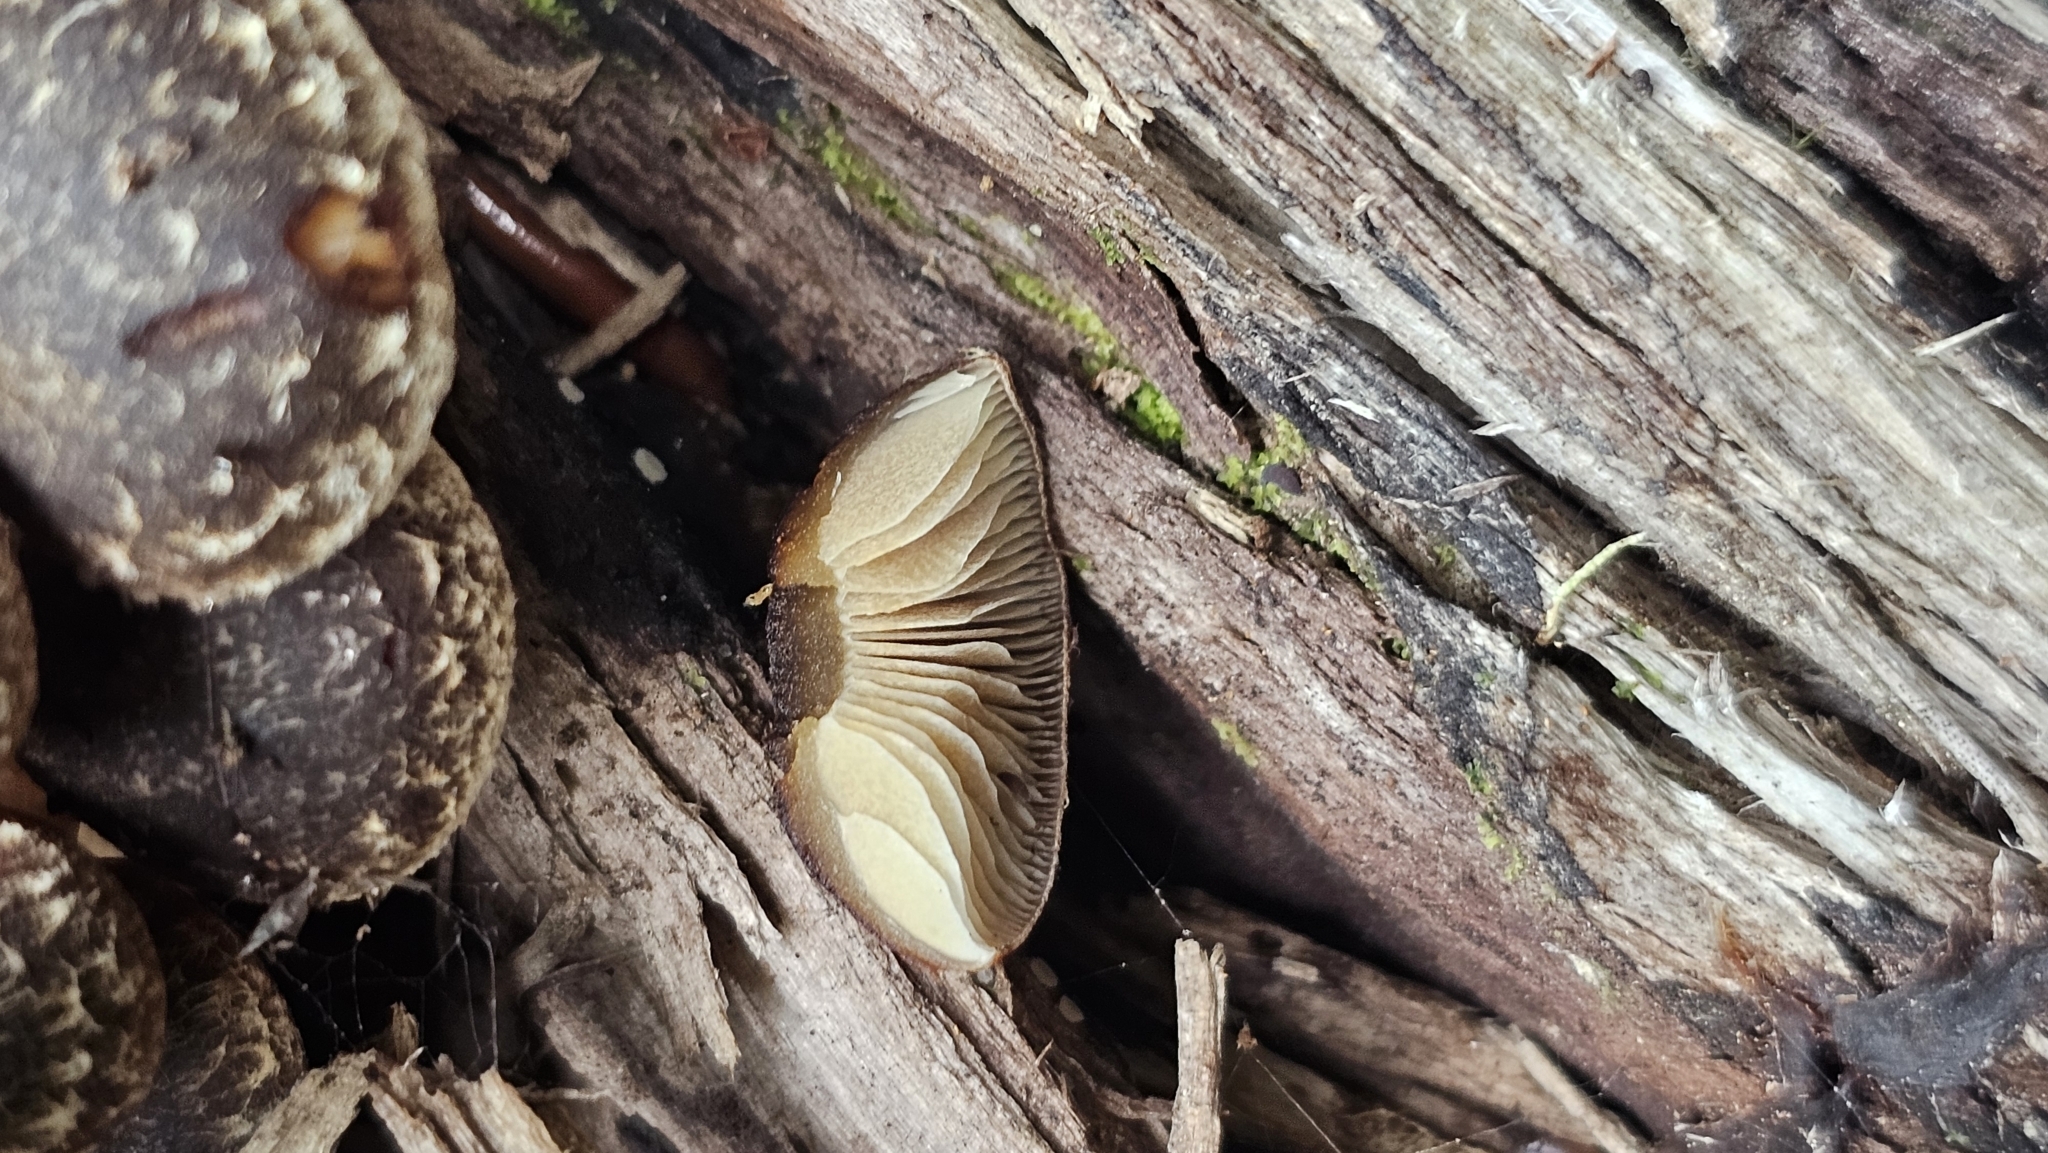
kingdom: Fungi
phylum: Basidiomycota
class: Agaricomycetes
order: Agaricales
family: Strophariaceae
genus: Hypholoma
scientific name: Hypholoma brunneum
